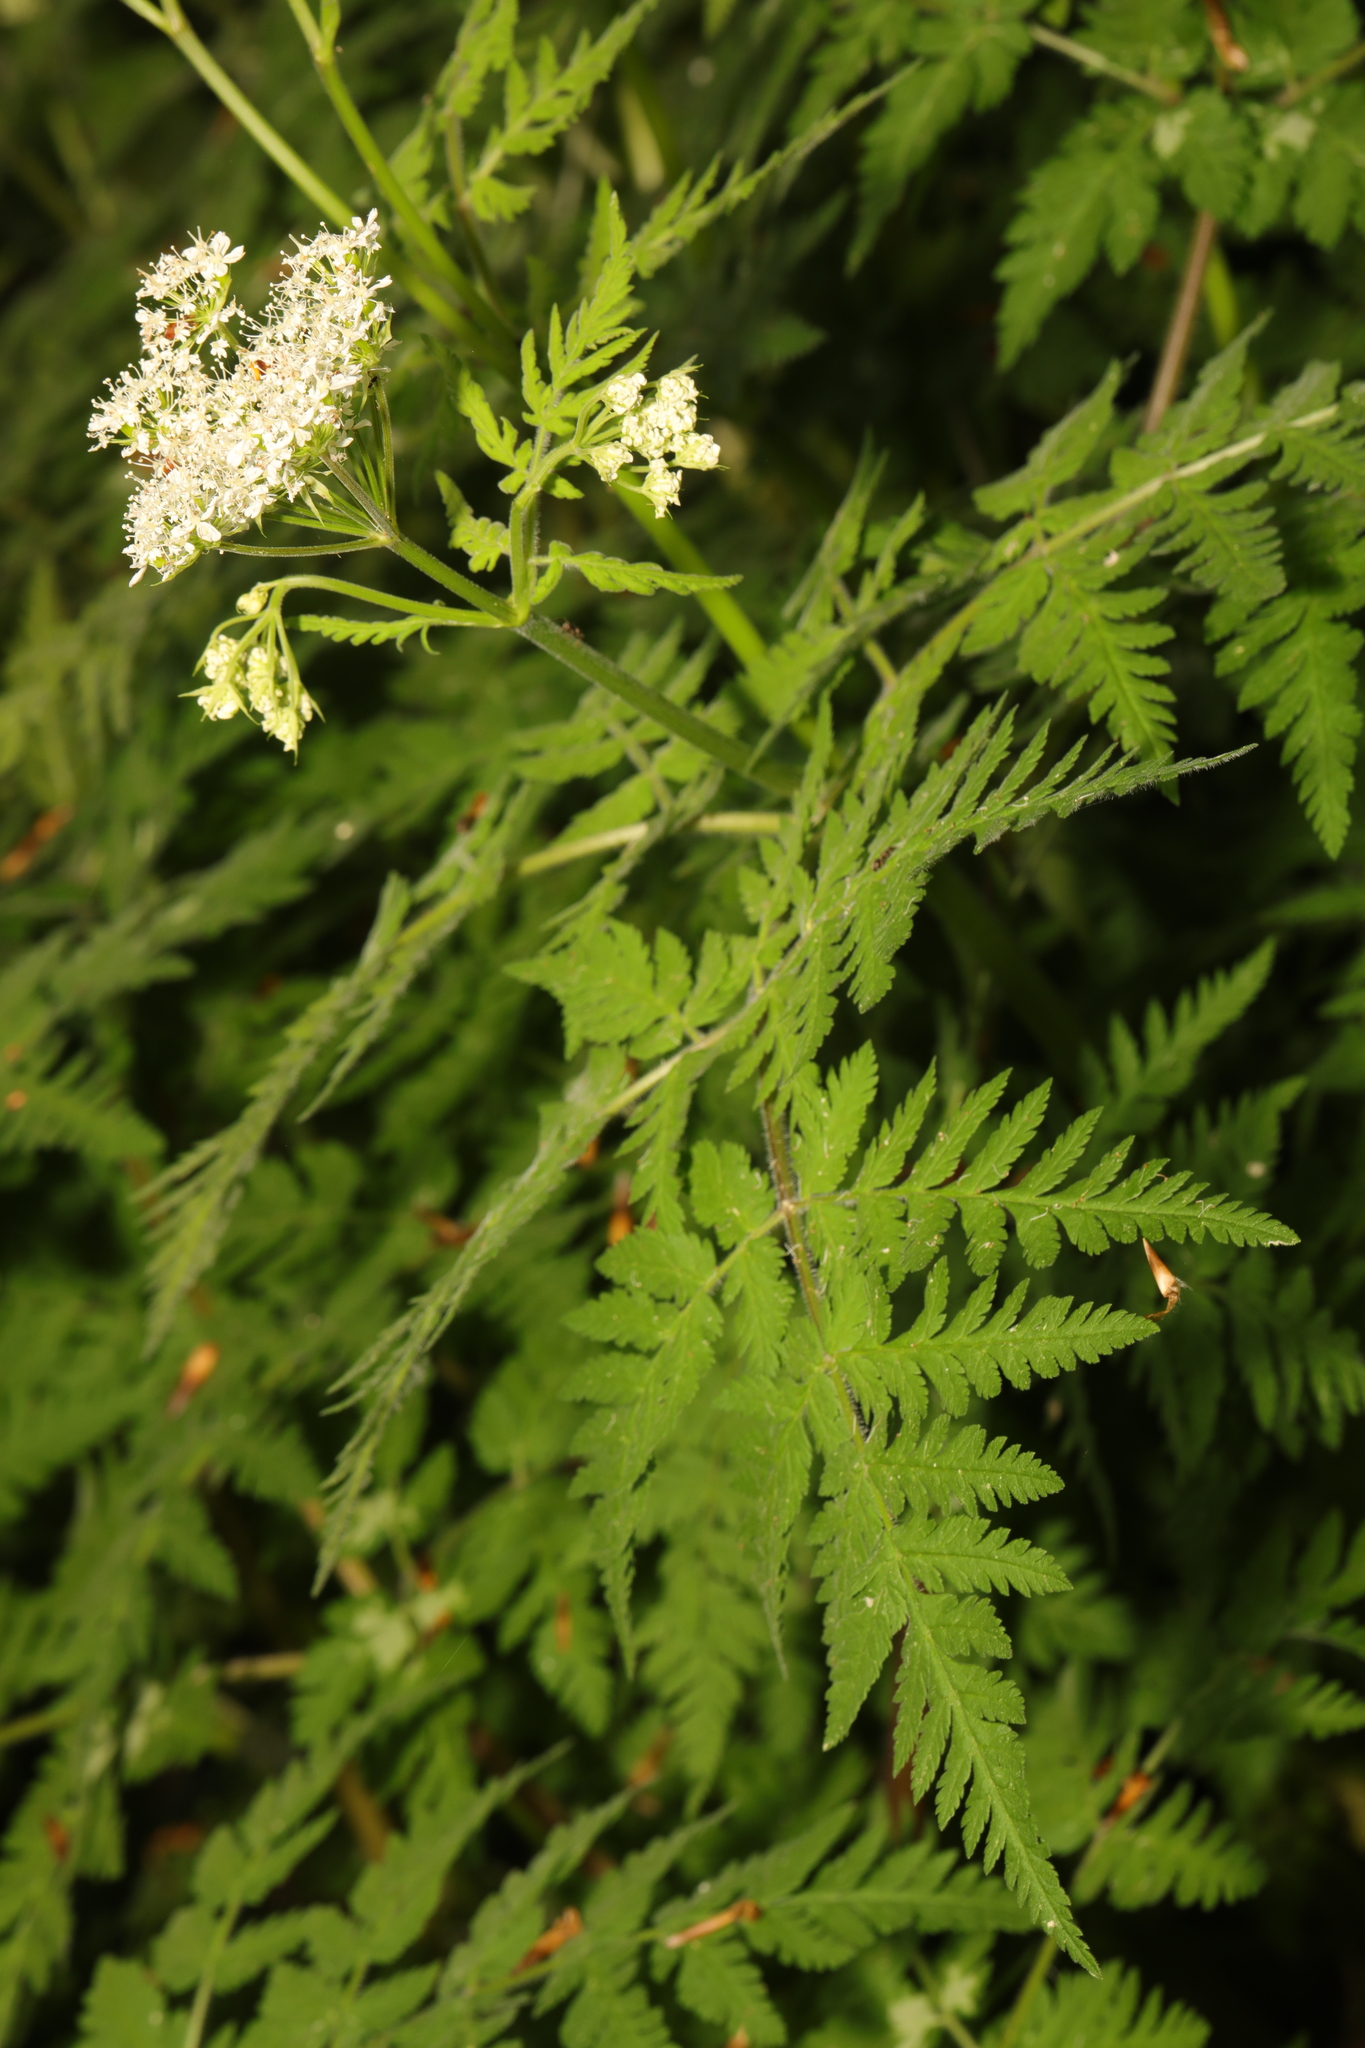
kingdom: Plantae
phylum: Tracheophyta
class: Magnoliopsida
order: Apiales
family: Apiaceae
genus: Myrrhis
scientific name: Myrrhis odorata
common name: Sweet cicely
